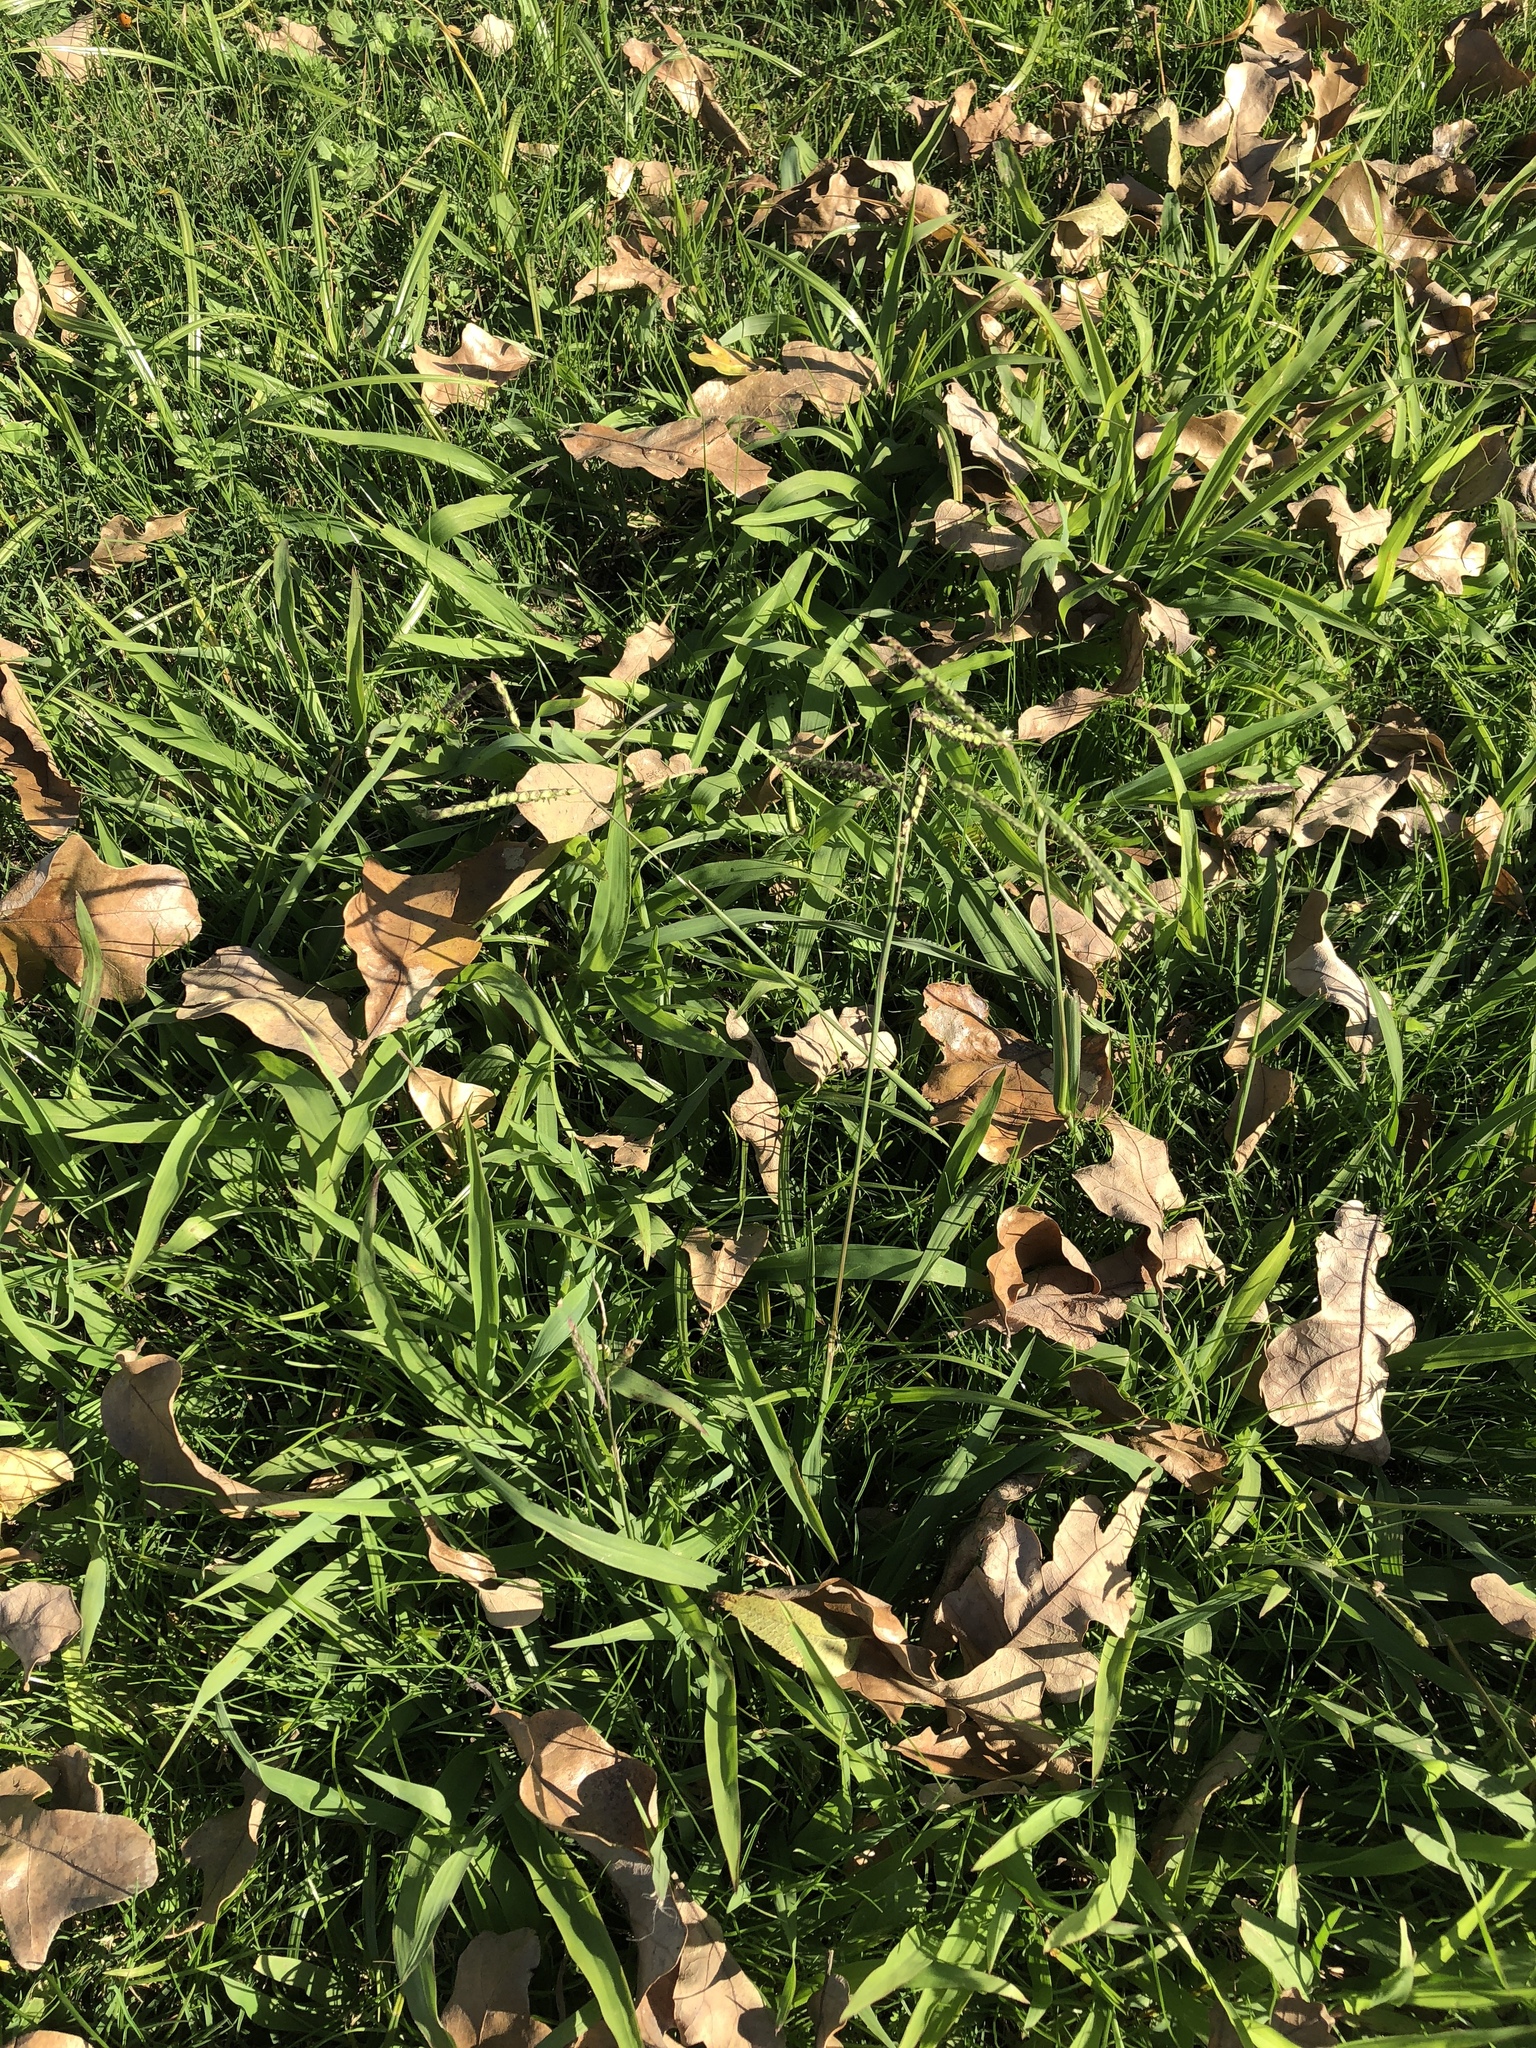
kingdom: Plantae
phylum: Tracheophyta
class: Liliopsida
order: Poales
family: Poaceae
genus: Paspalum
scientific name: Paspalum dilatatum
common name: Dallisgrass
